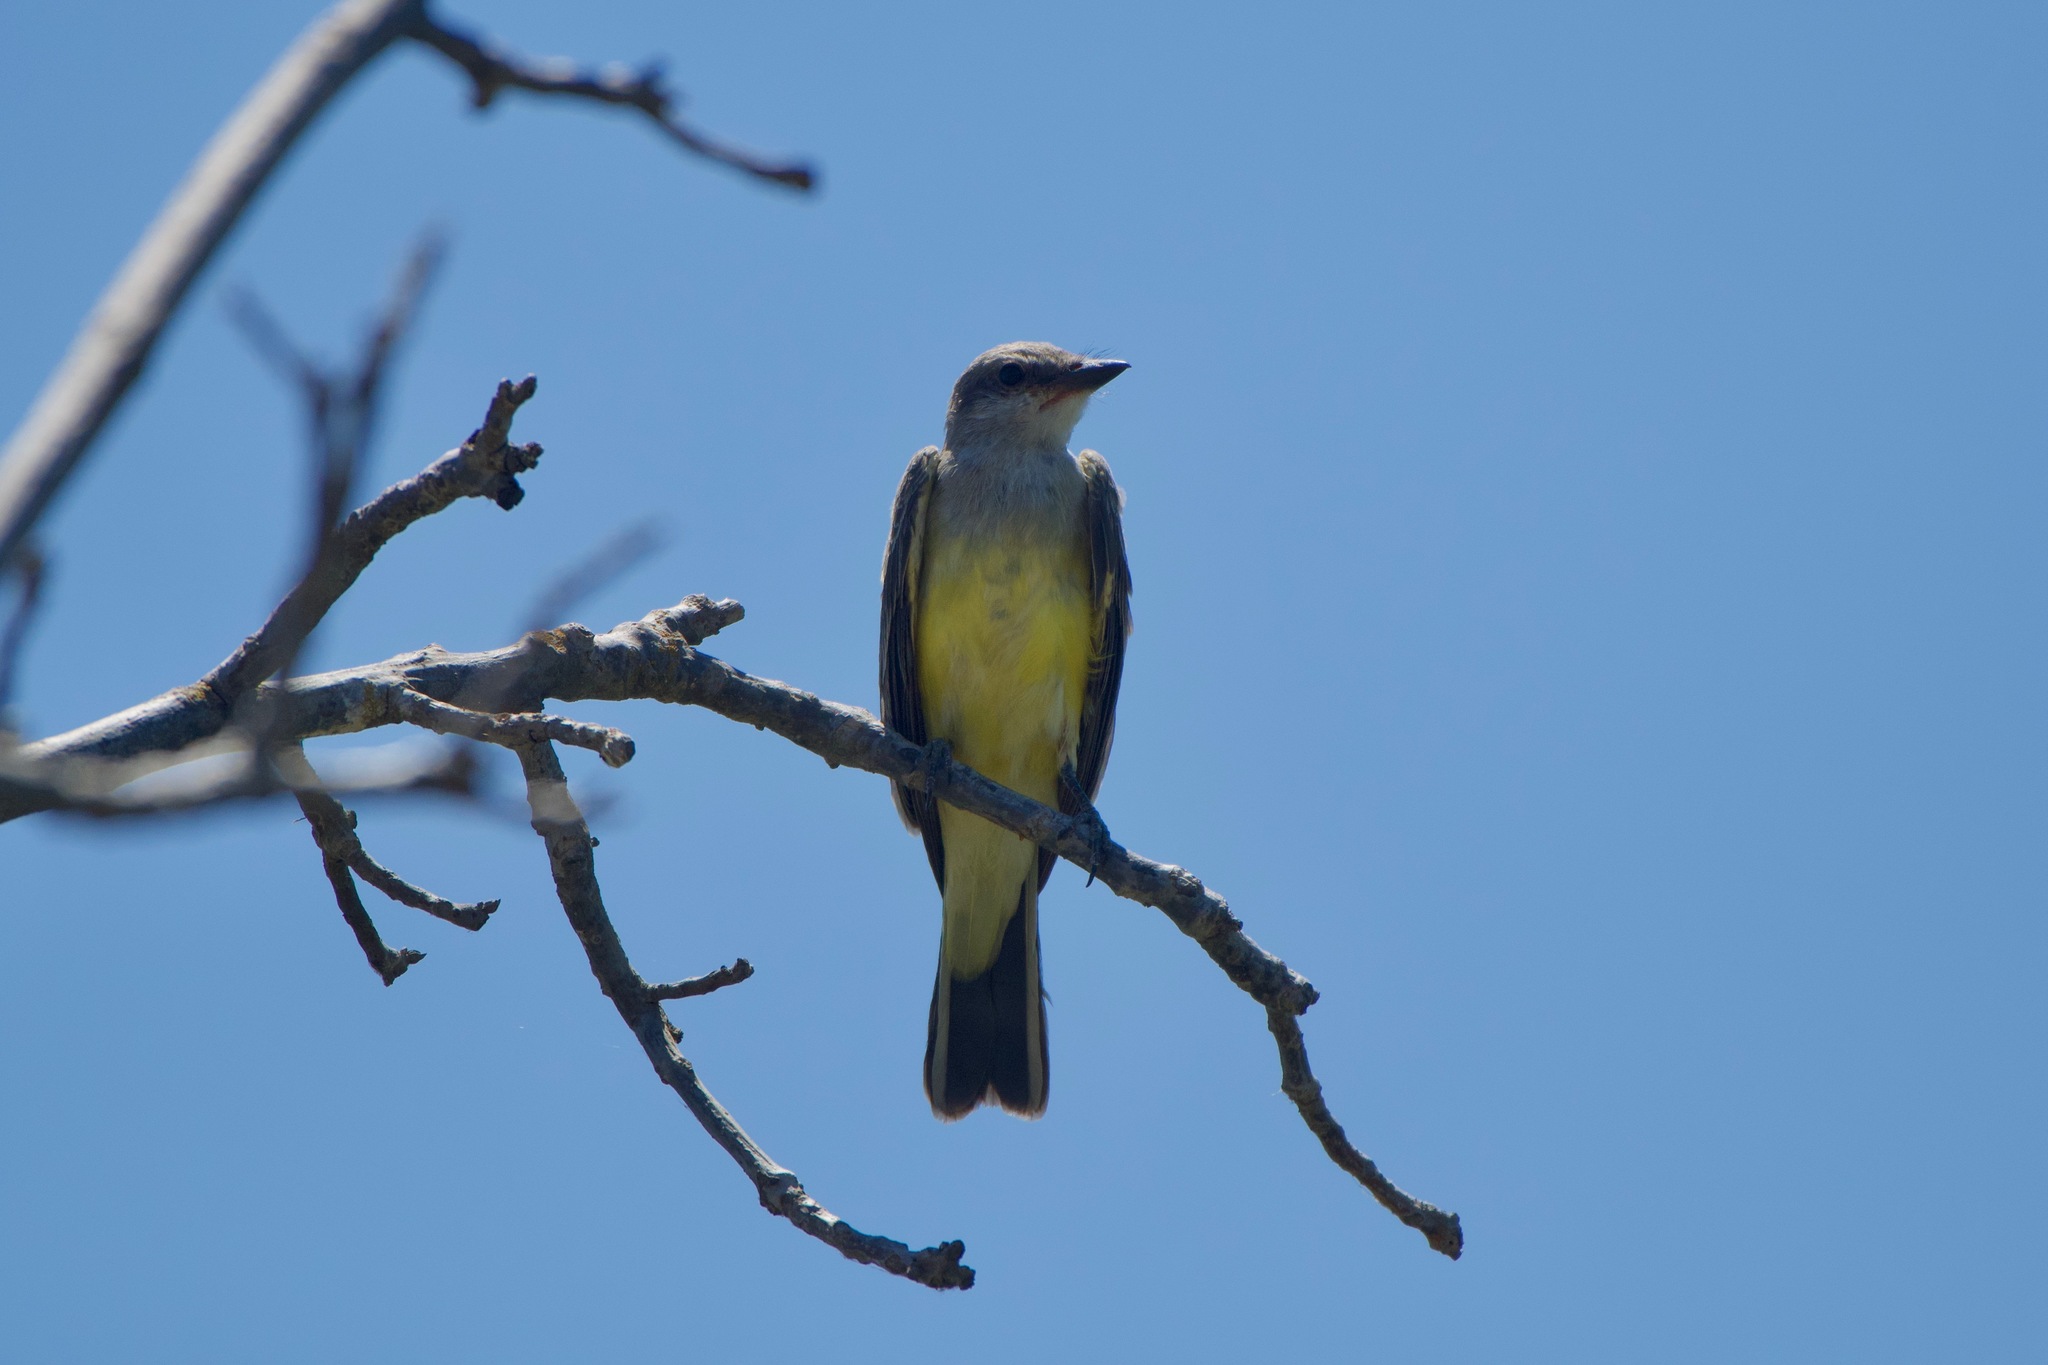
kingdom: Animalia
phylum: Chordata
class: Aves
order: Passeriformes
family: Tyrannidae
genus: Tyrannus
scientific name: Tyrannus verticalis
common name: Western kingbird
